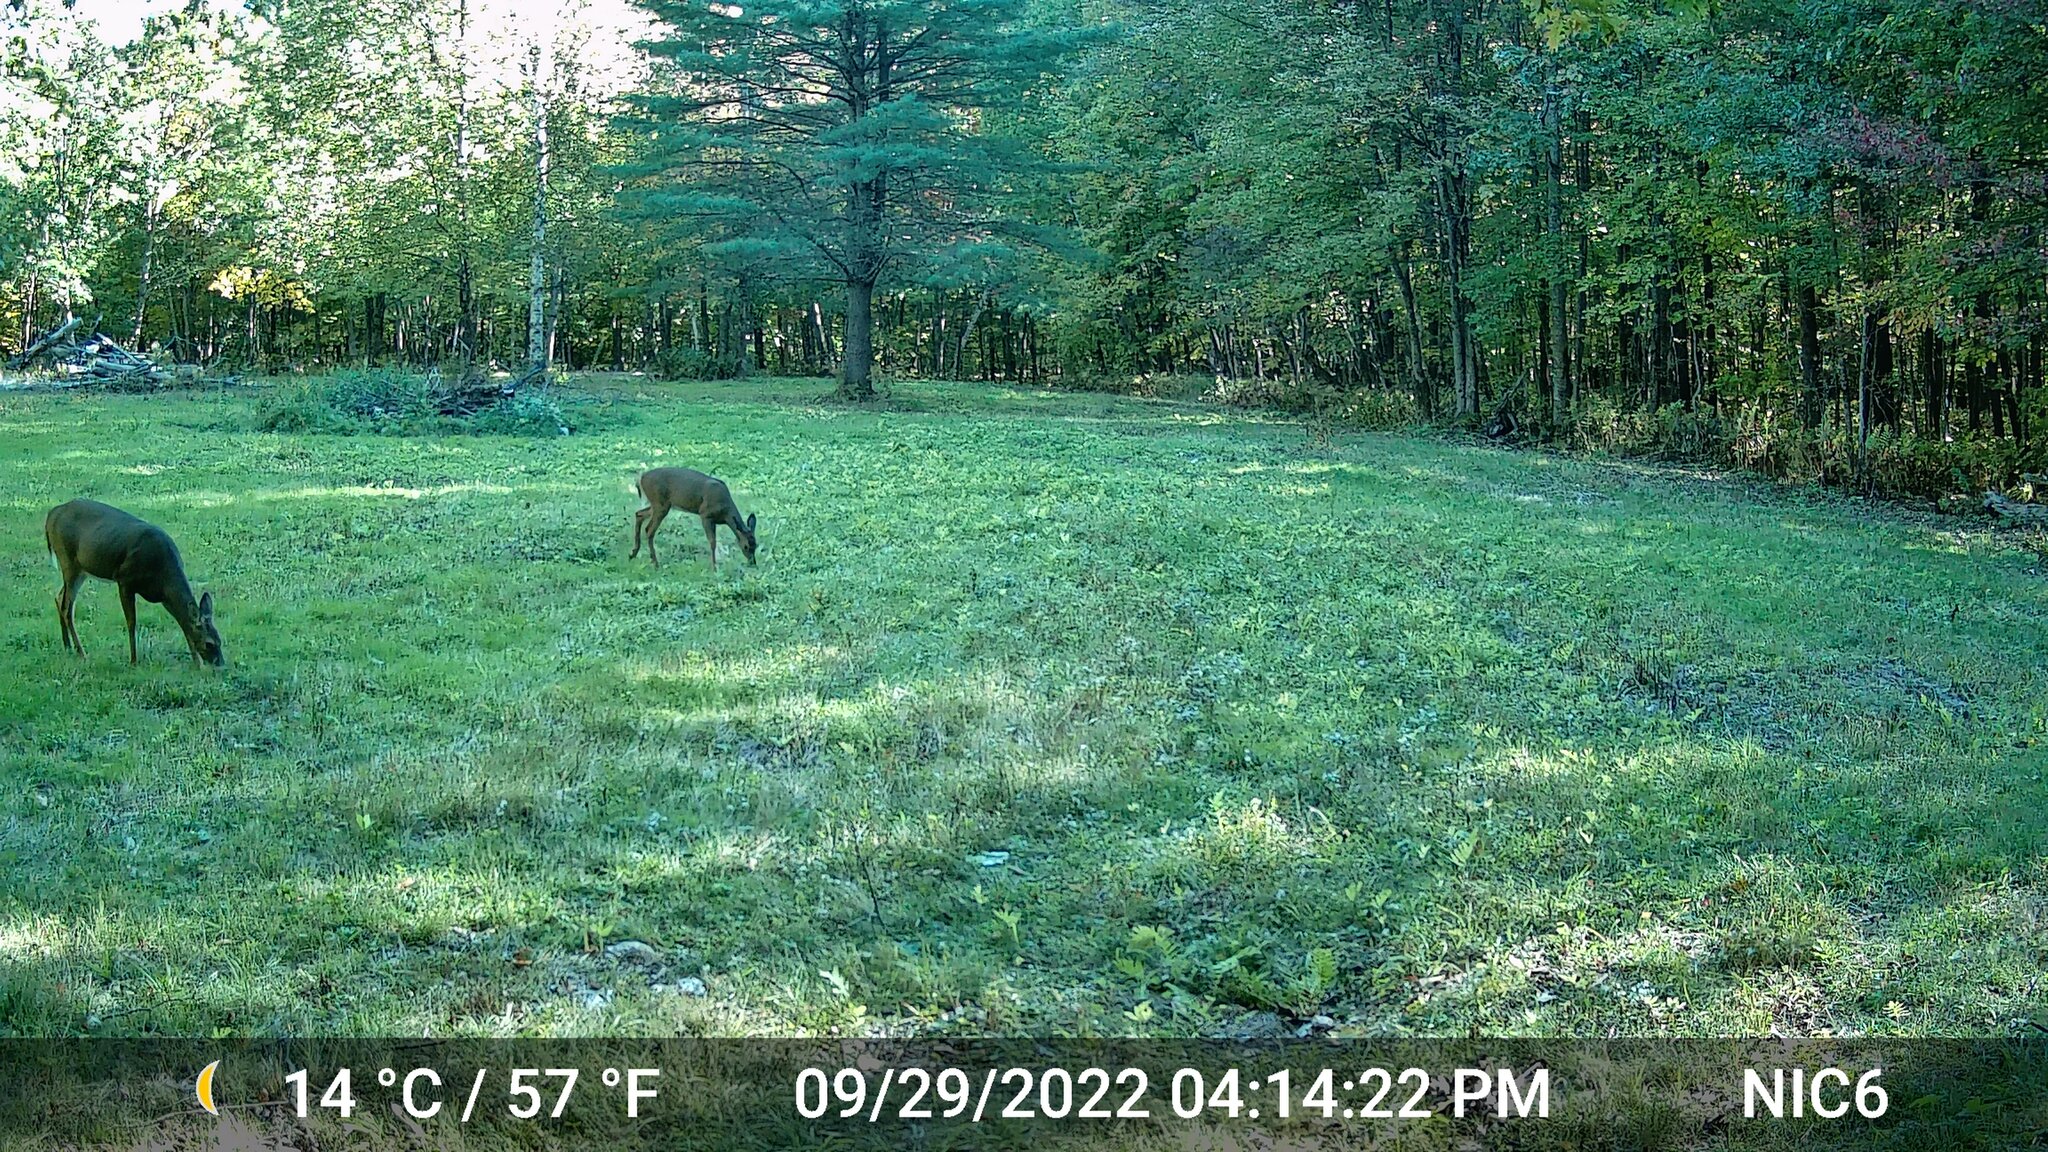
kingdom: Animalia
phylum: Chordata
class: Mammalia
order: Artiodactyla
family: Cervidae
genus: Odocoileus
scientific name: Odocoileus virginianus
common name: White-tailed deer
